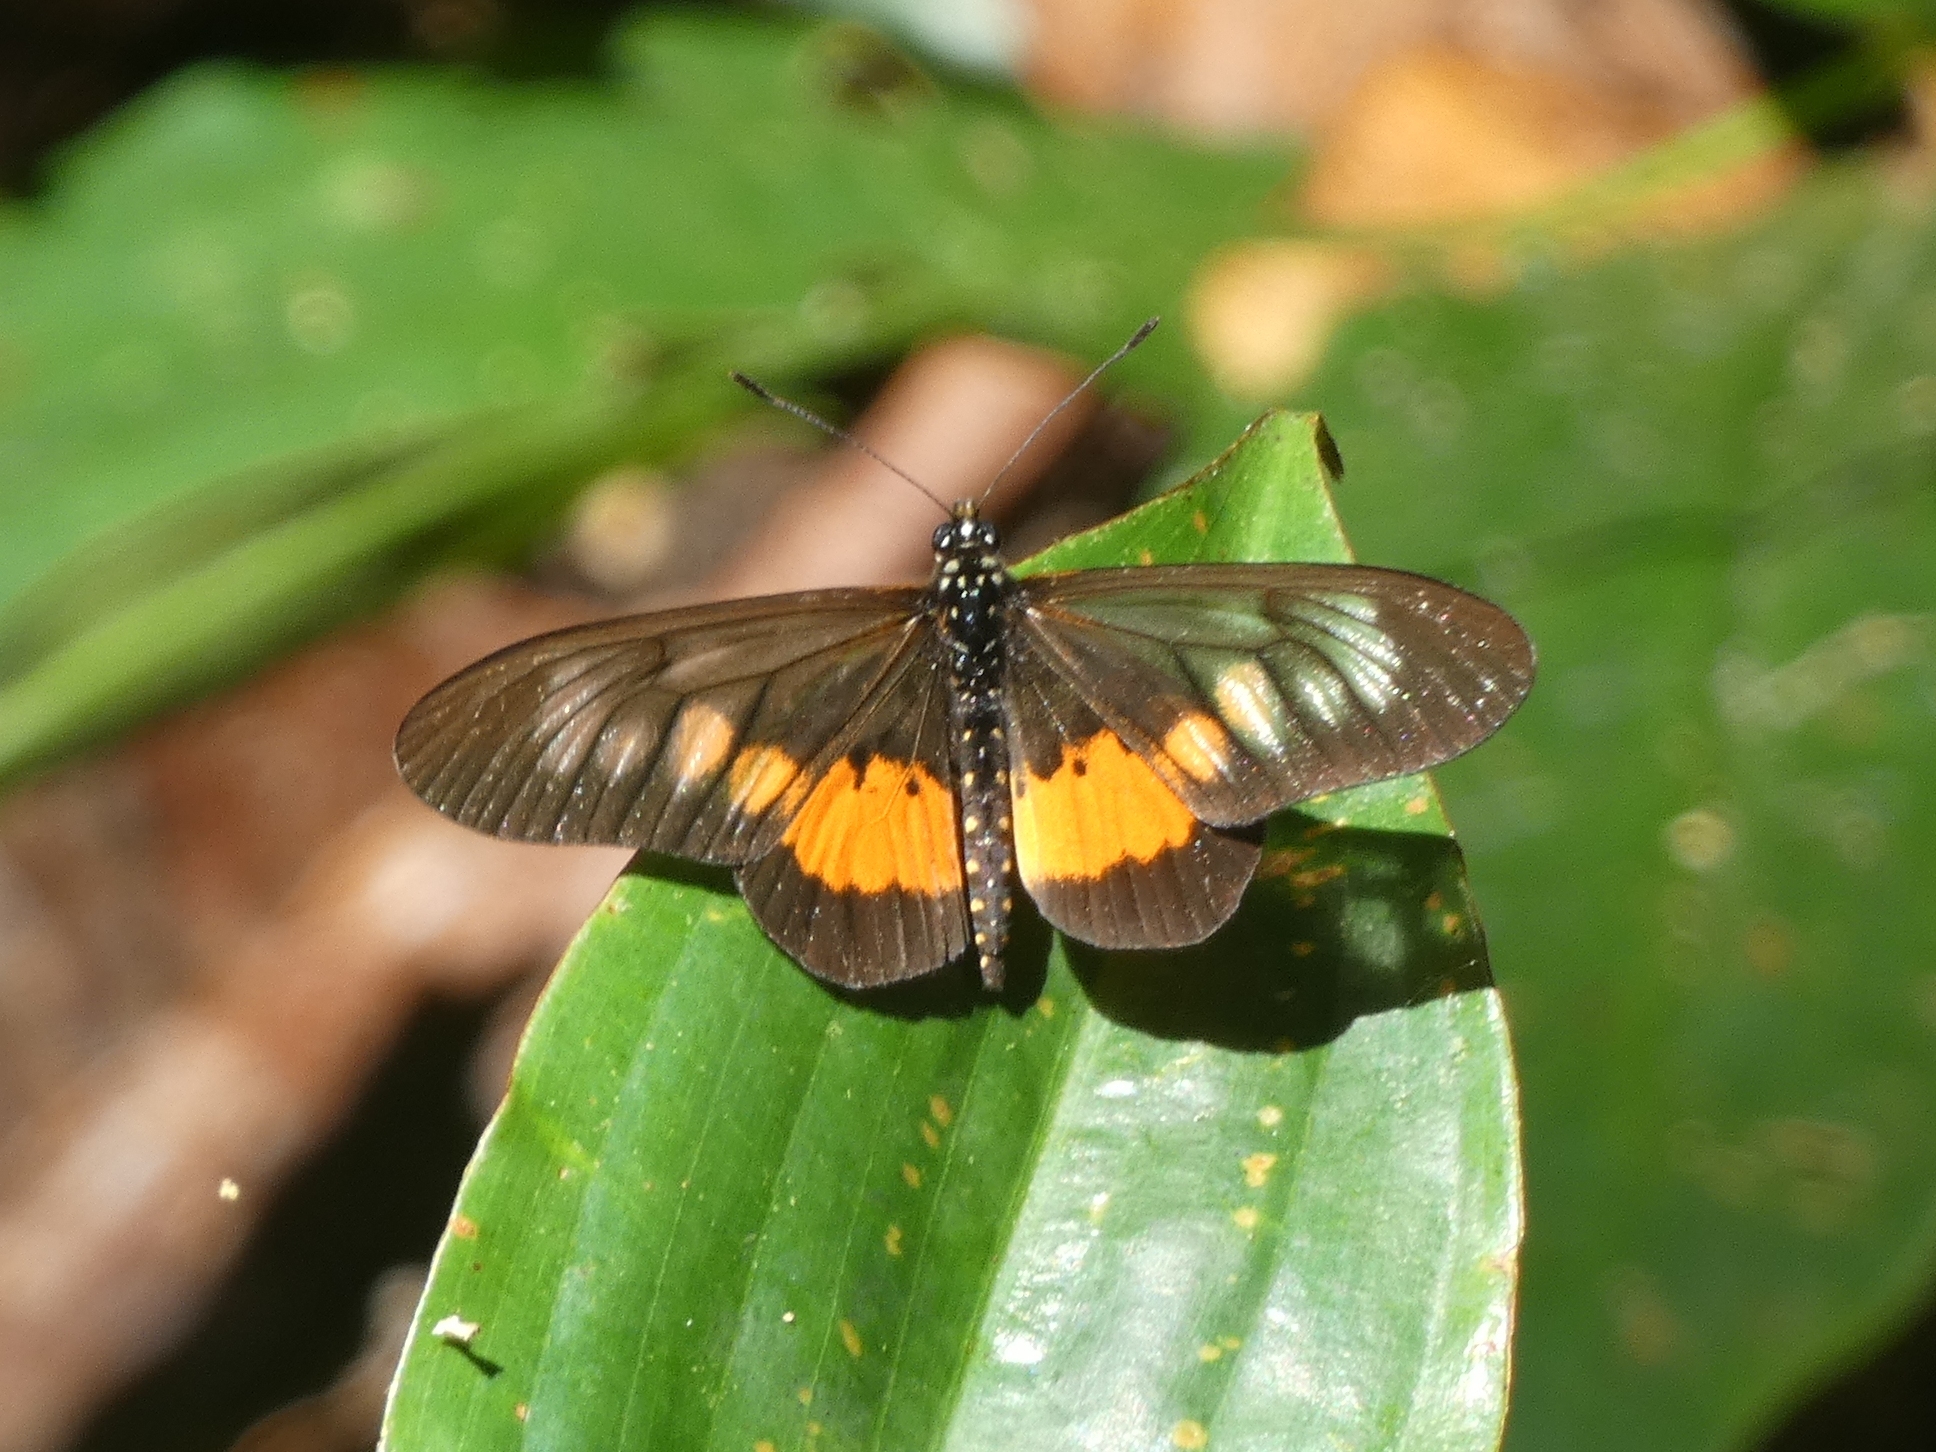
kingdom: Animalia
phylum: Arthropoda
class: Insecta
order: Lepidoptera
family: Nymphalidae
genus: Acraea
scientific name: Acraea
